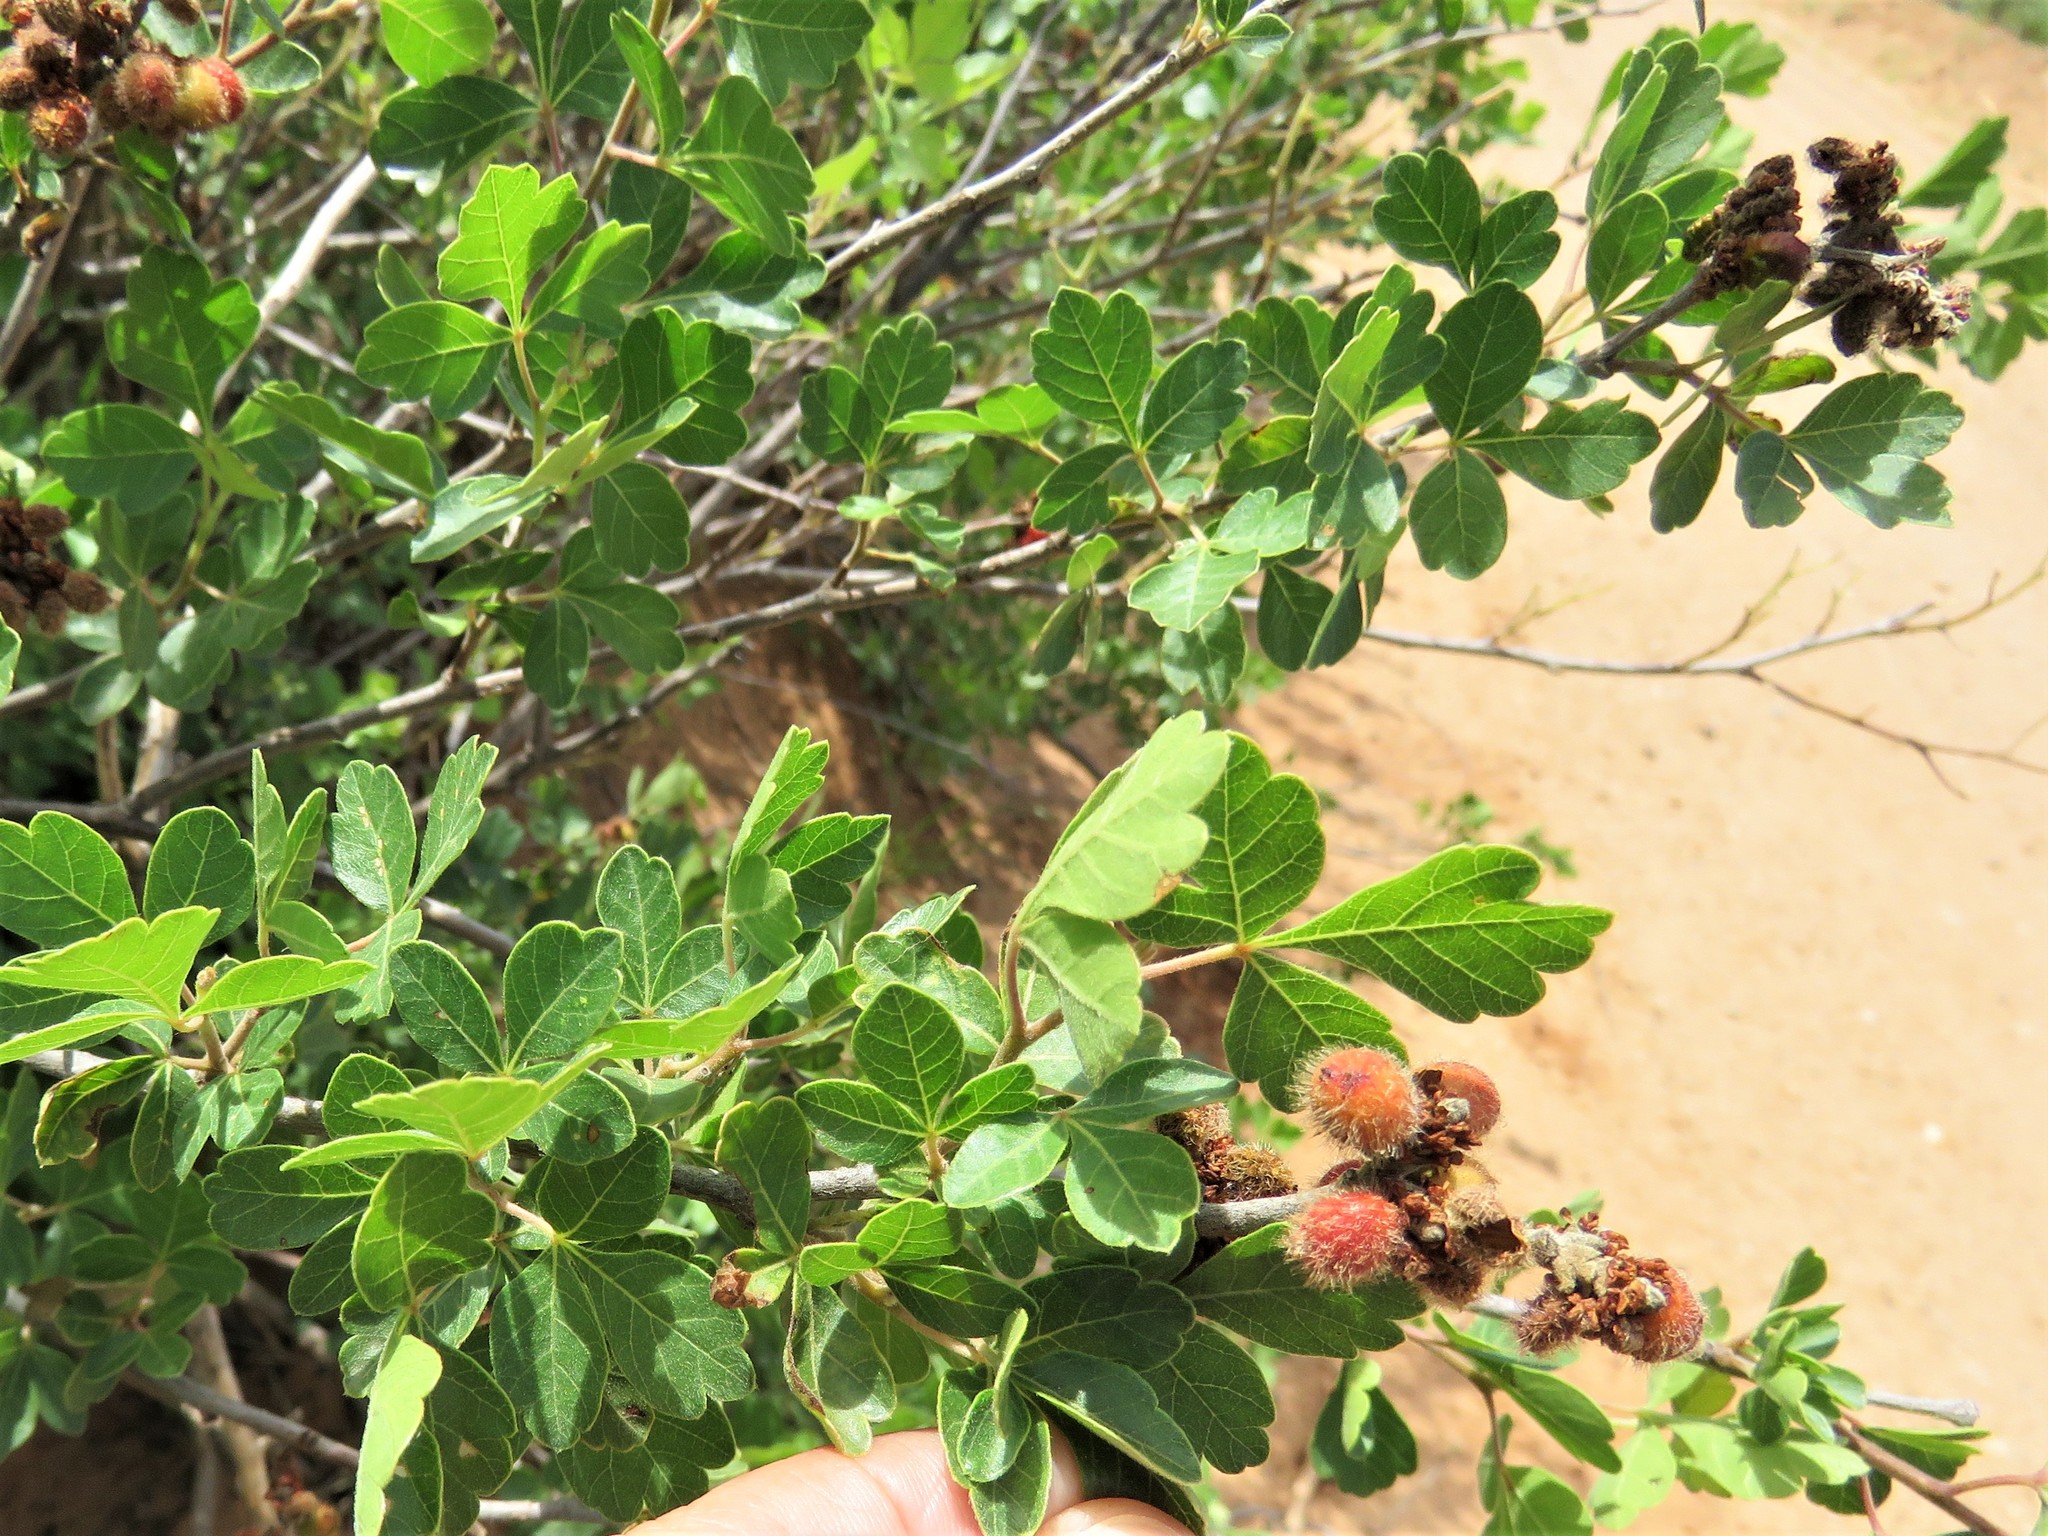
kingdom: Plantae
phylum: Tracheophyta
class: Magnoliopsida
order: Sapindales
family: Anacardiaceae
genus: Rhus
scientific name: Rhus aromatica
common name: Aromatic sumac
